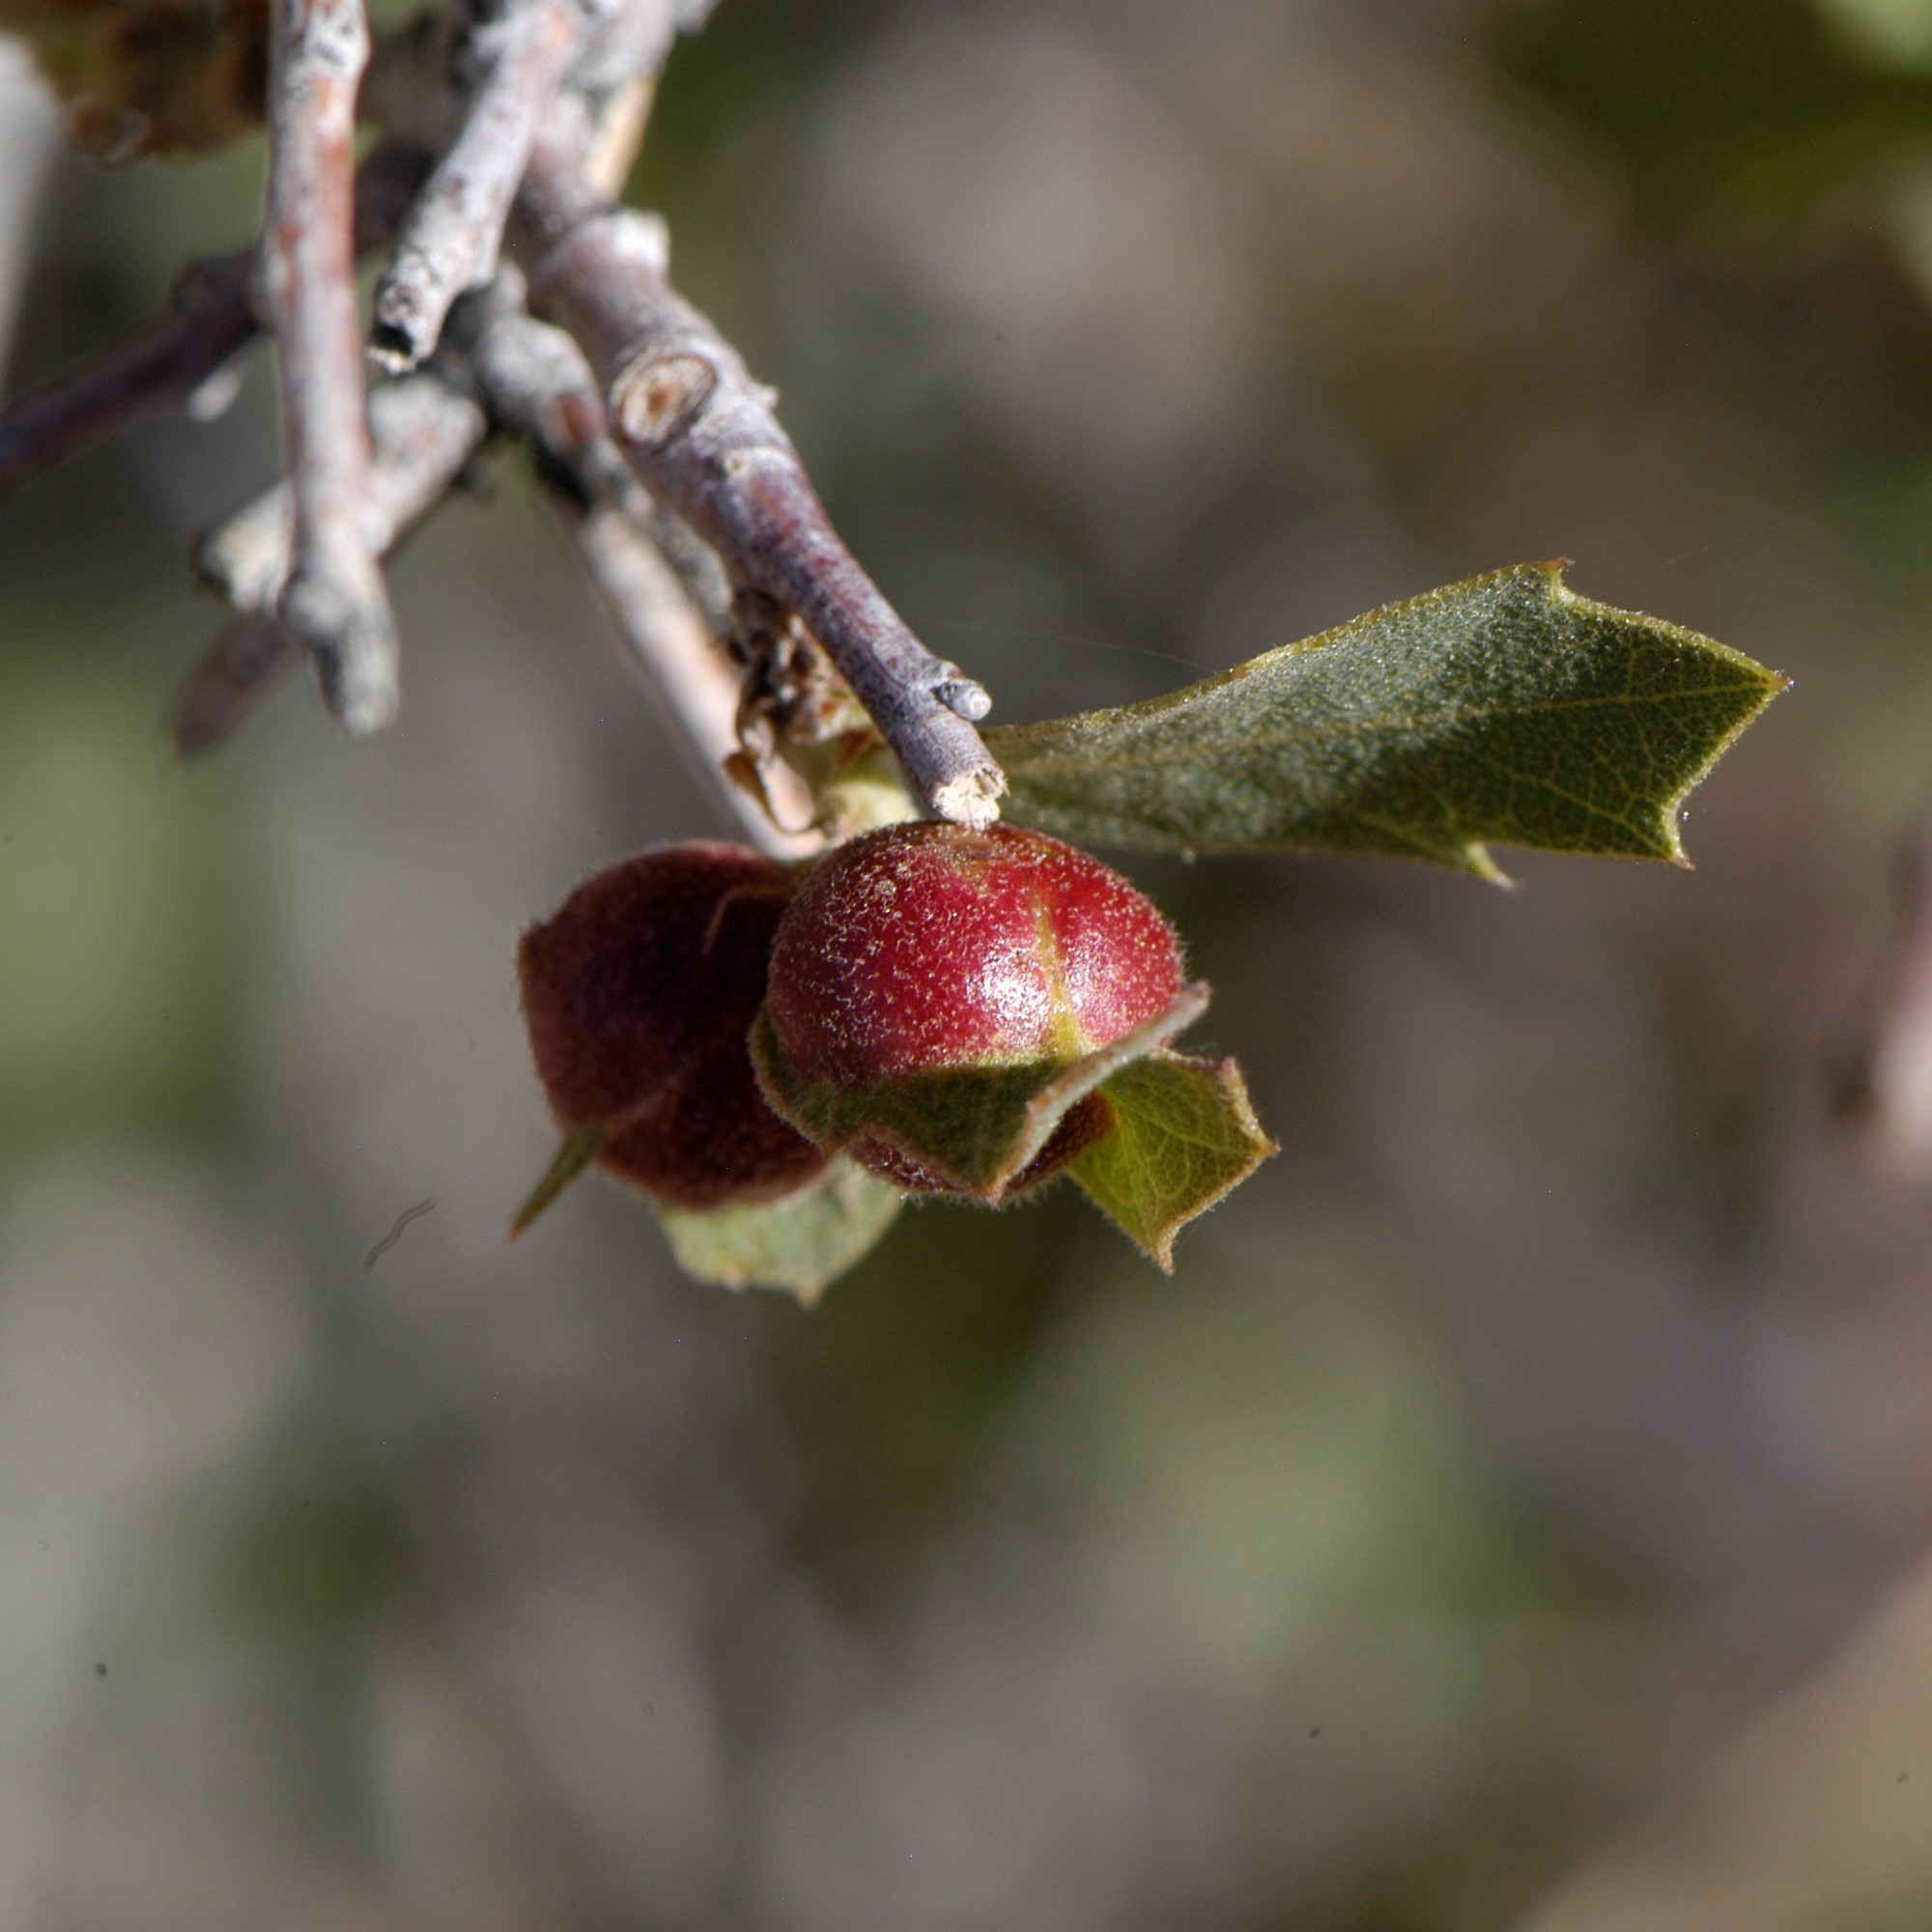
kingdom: Animalia
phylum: Arthropoda
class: Insecta
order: Hymenoptera
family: Cynipidae
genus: Andricus
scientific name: Andricus
